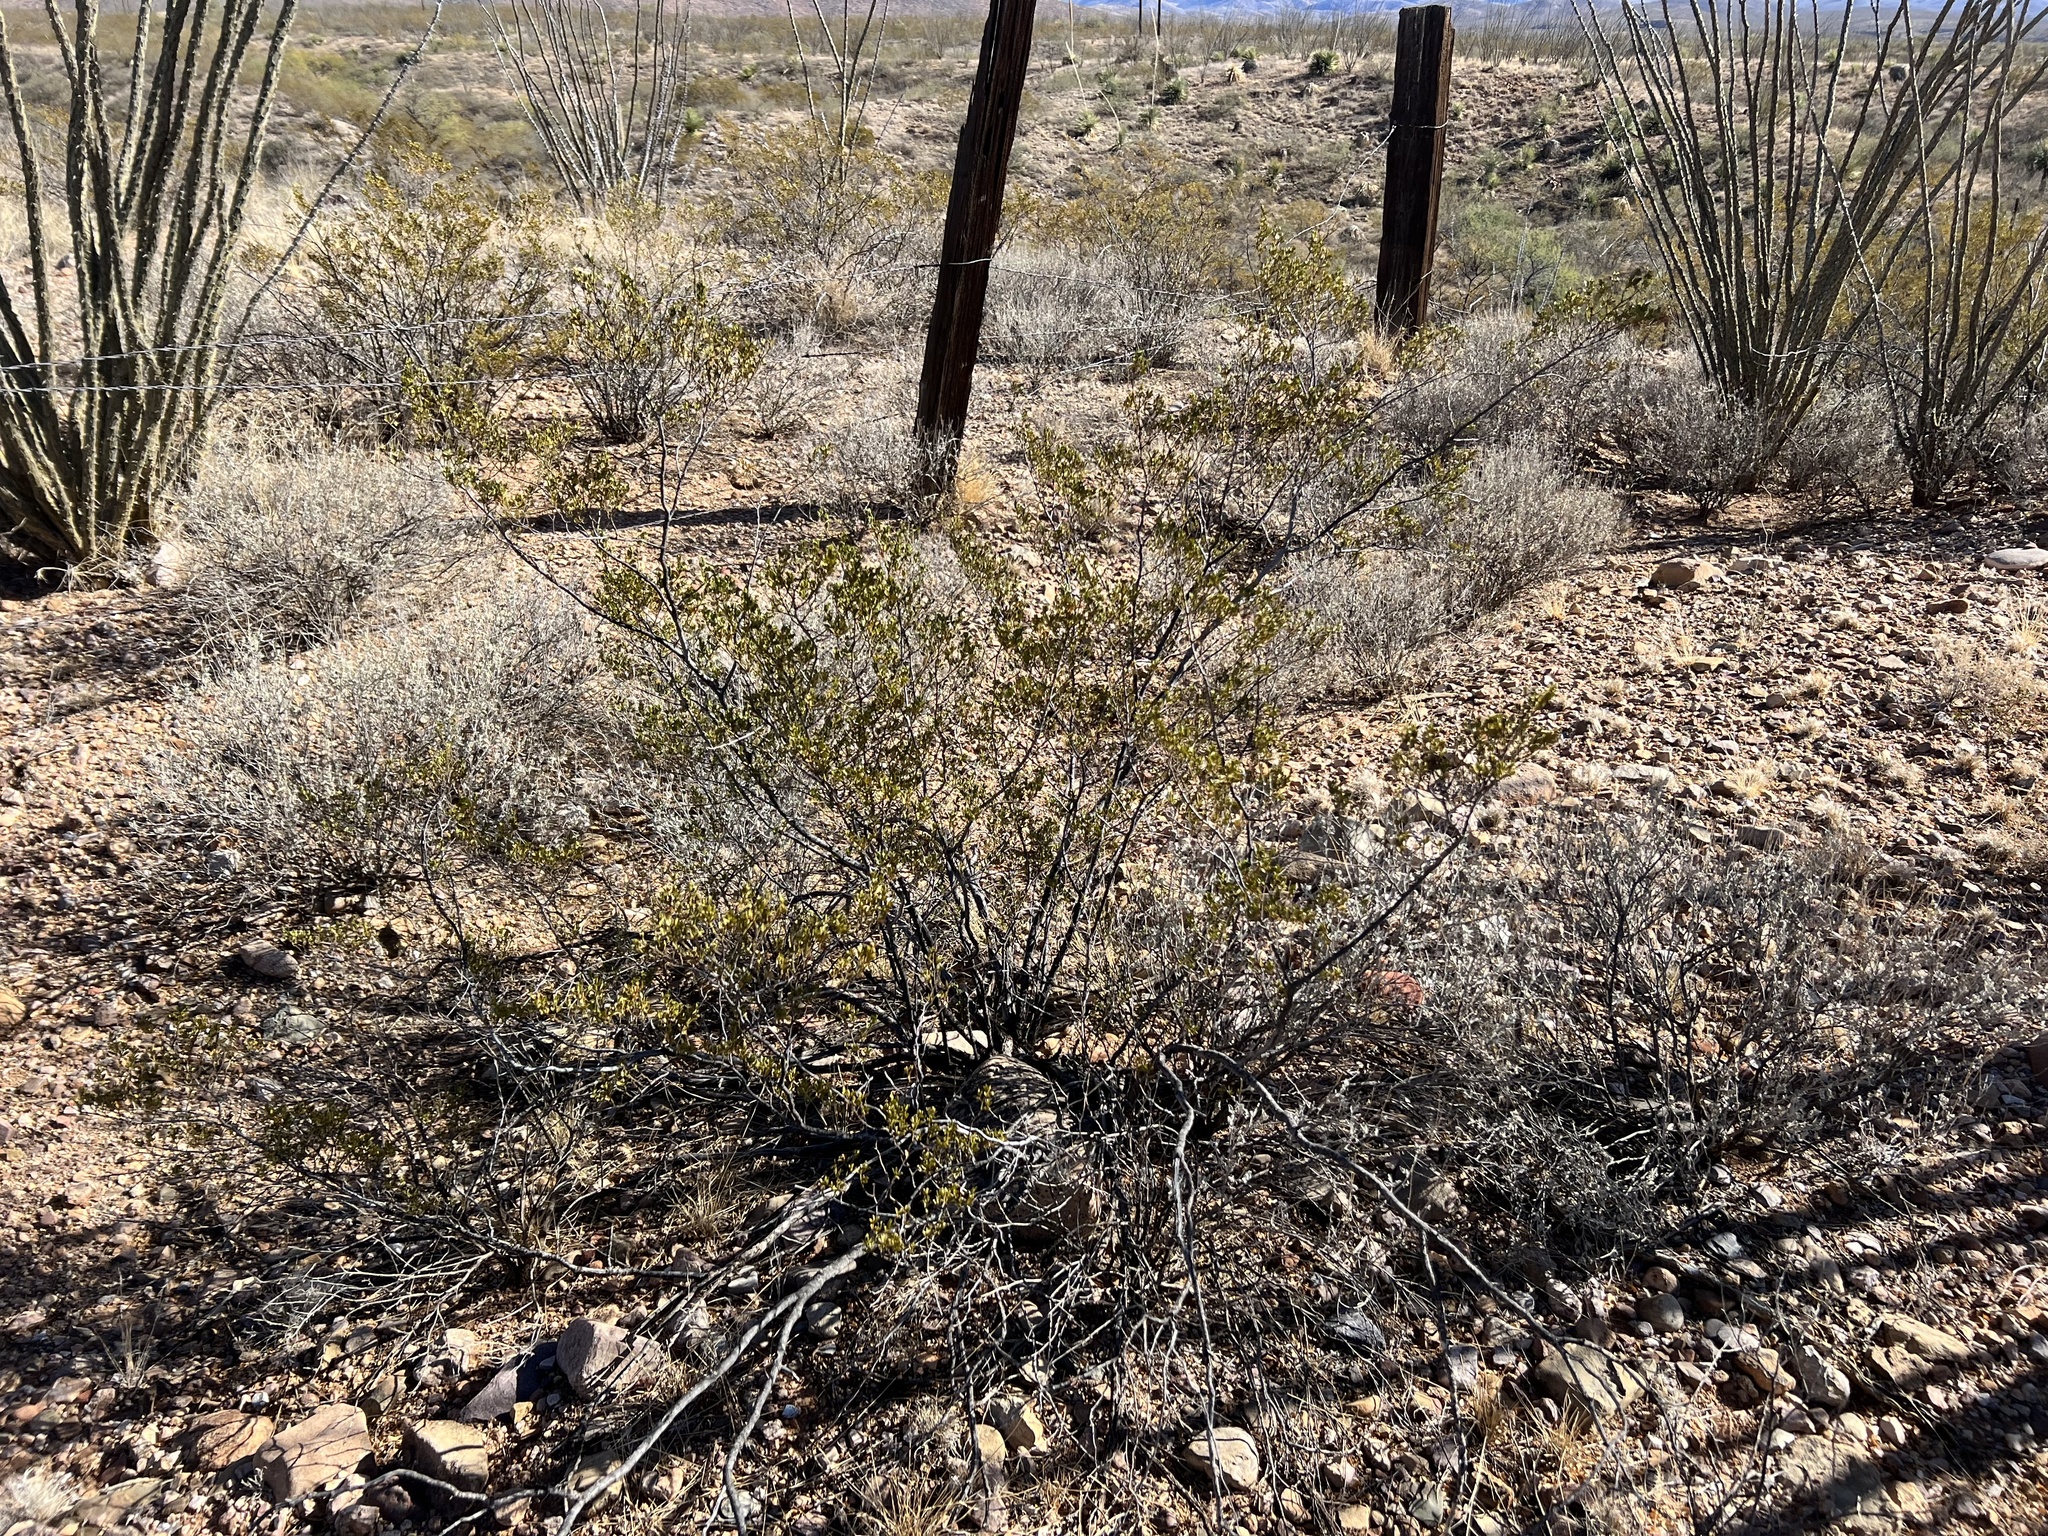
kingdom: Plantae
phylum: Tracheophyta
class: Magnoliopsida
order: Zygophyllales
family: Zygophyllaceae
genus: Larrea
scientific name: Larrea tridentata
